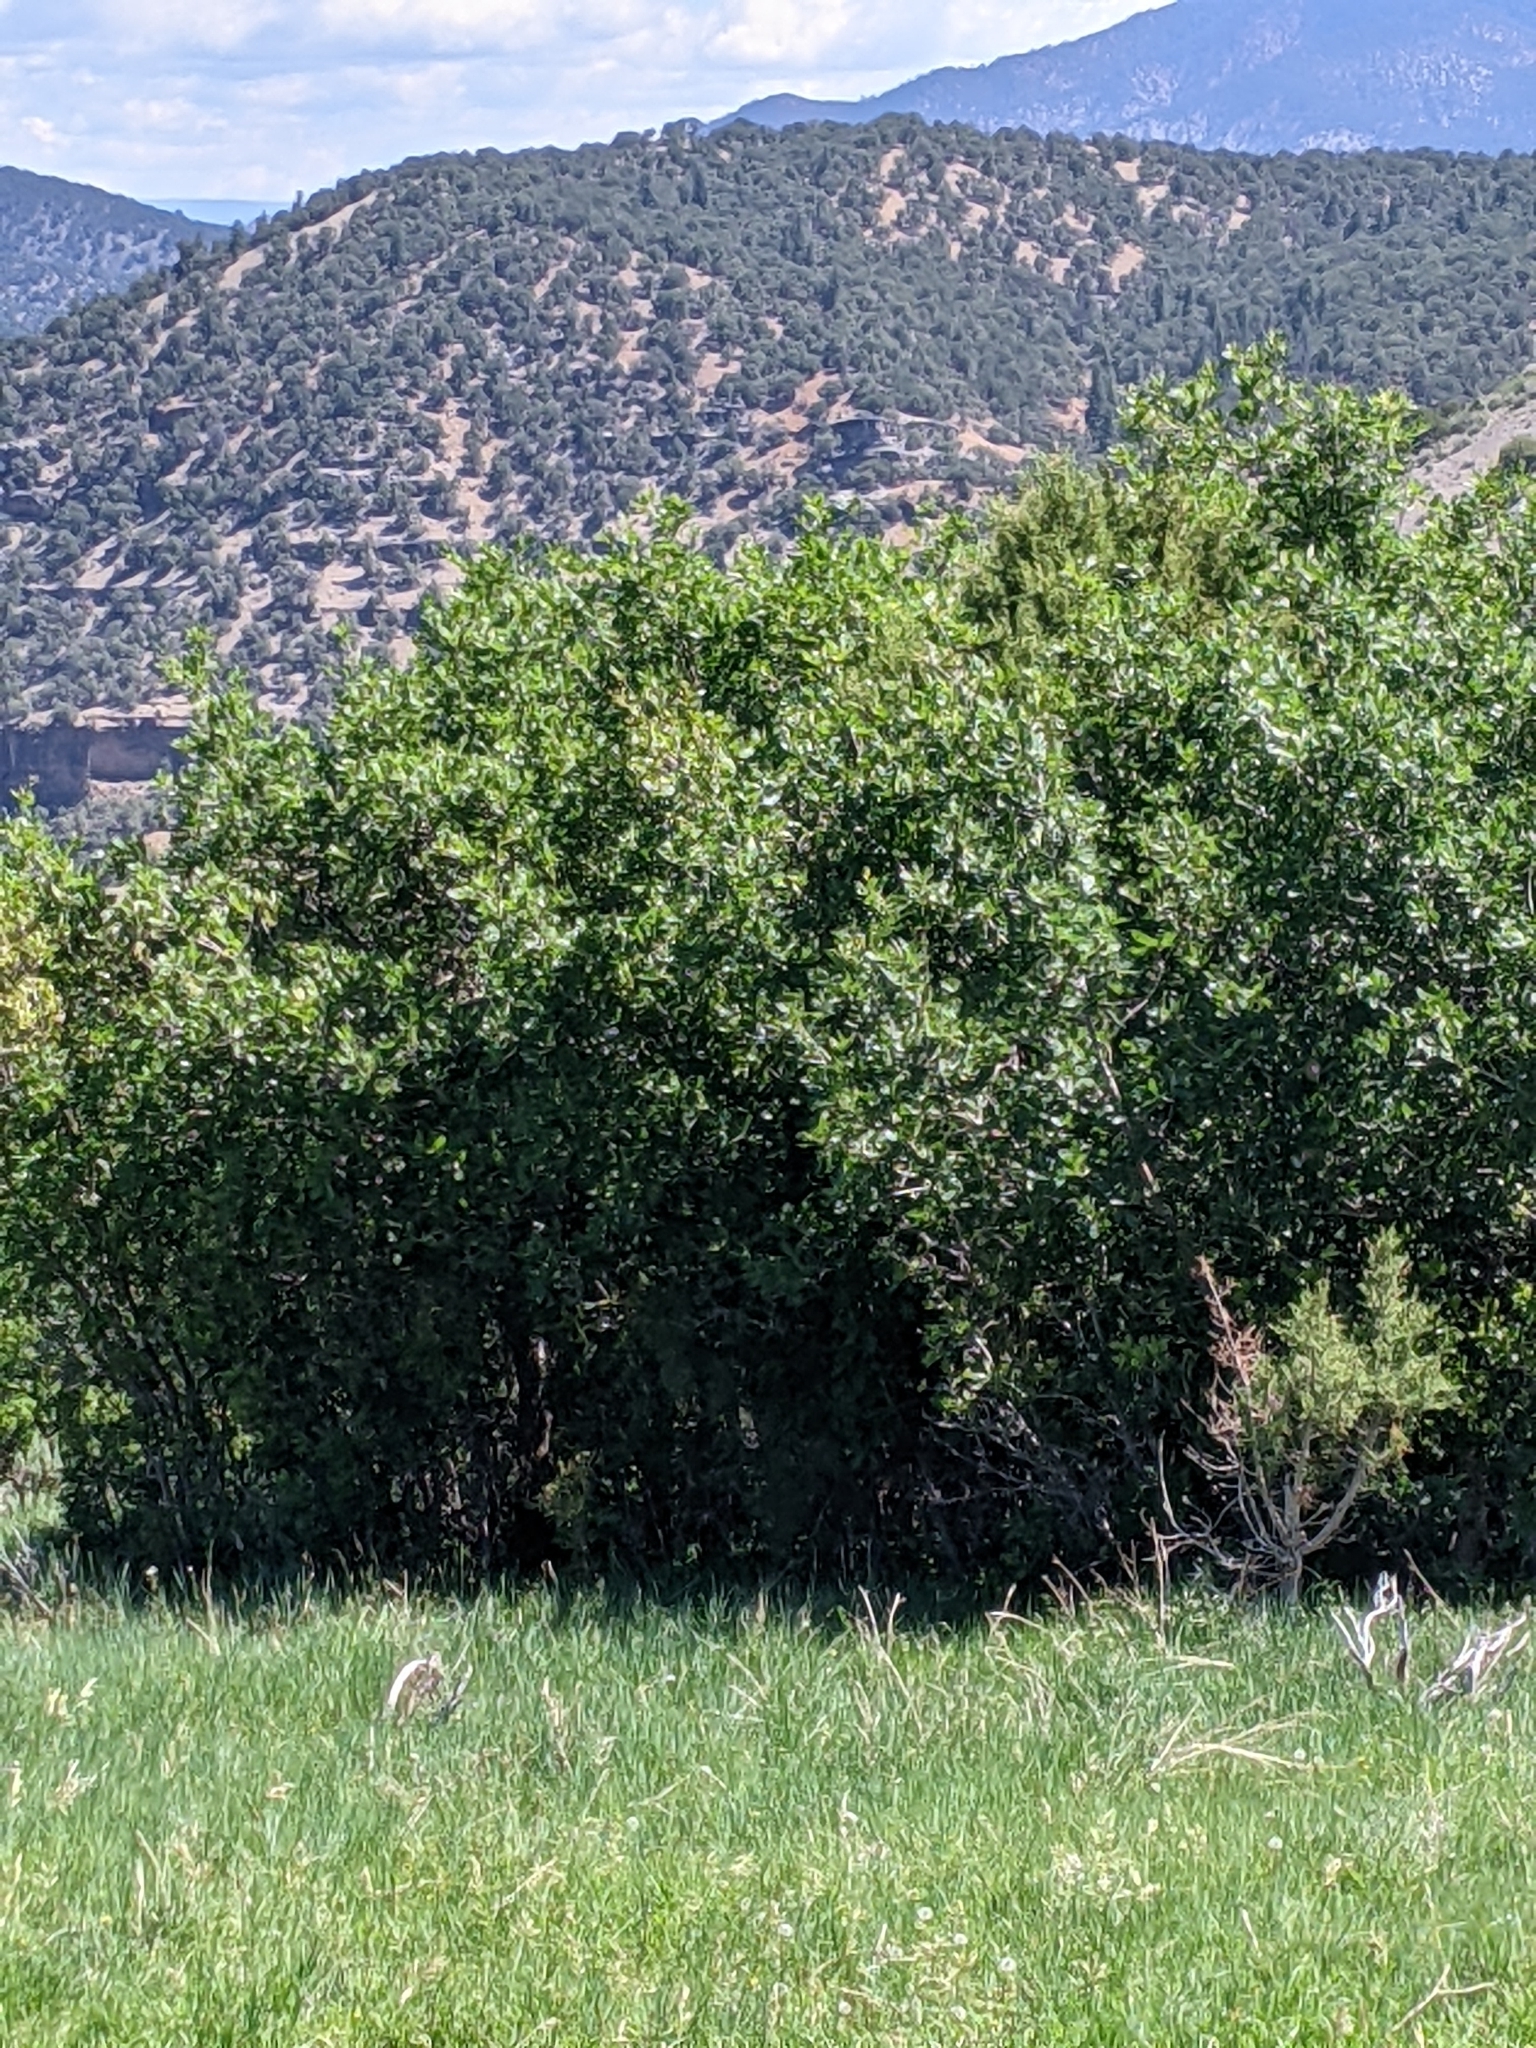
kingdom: Plantae
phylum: Tracheophyta
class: Magnoliopsida
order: Fagales
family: Fagaceae
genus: Quercus
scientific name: Quercus gambelii
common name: Gambel oak
